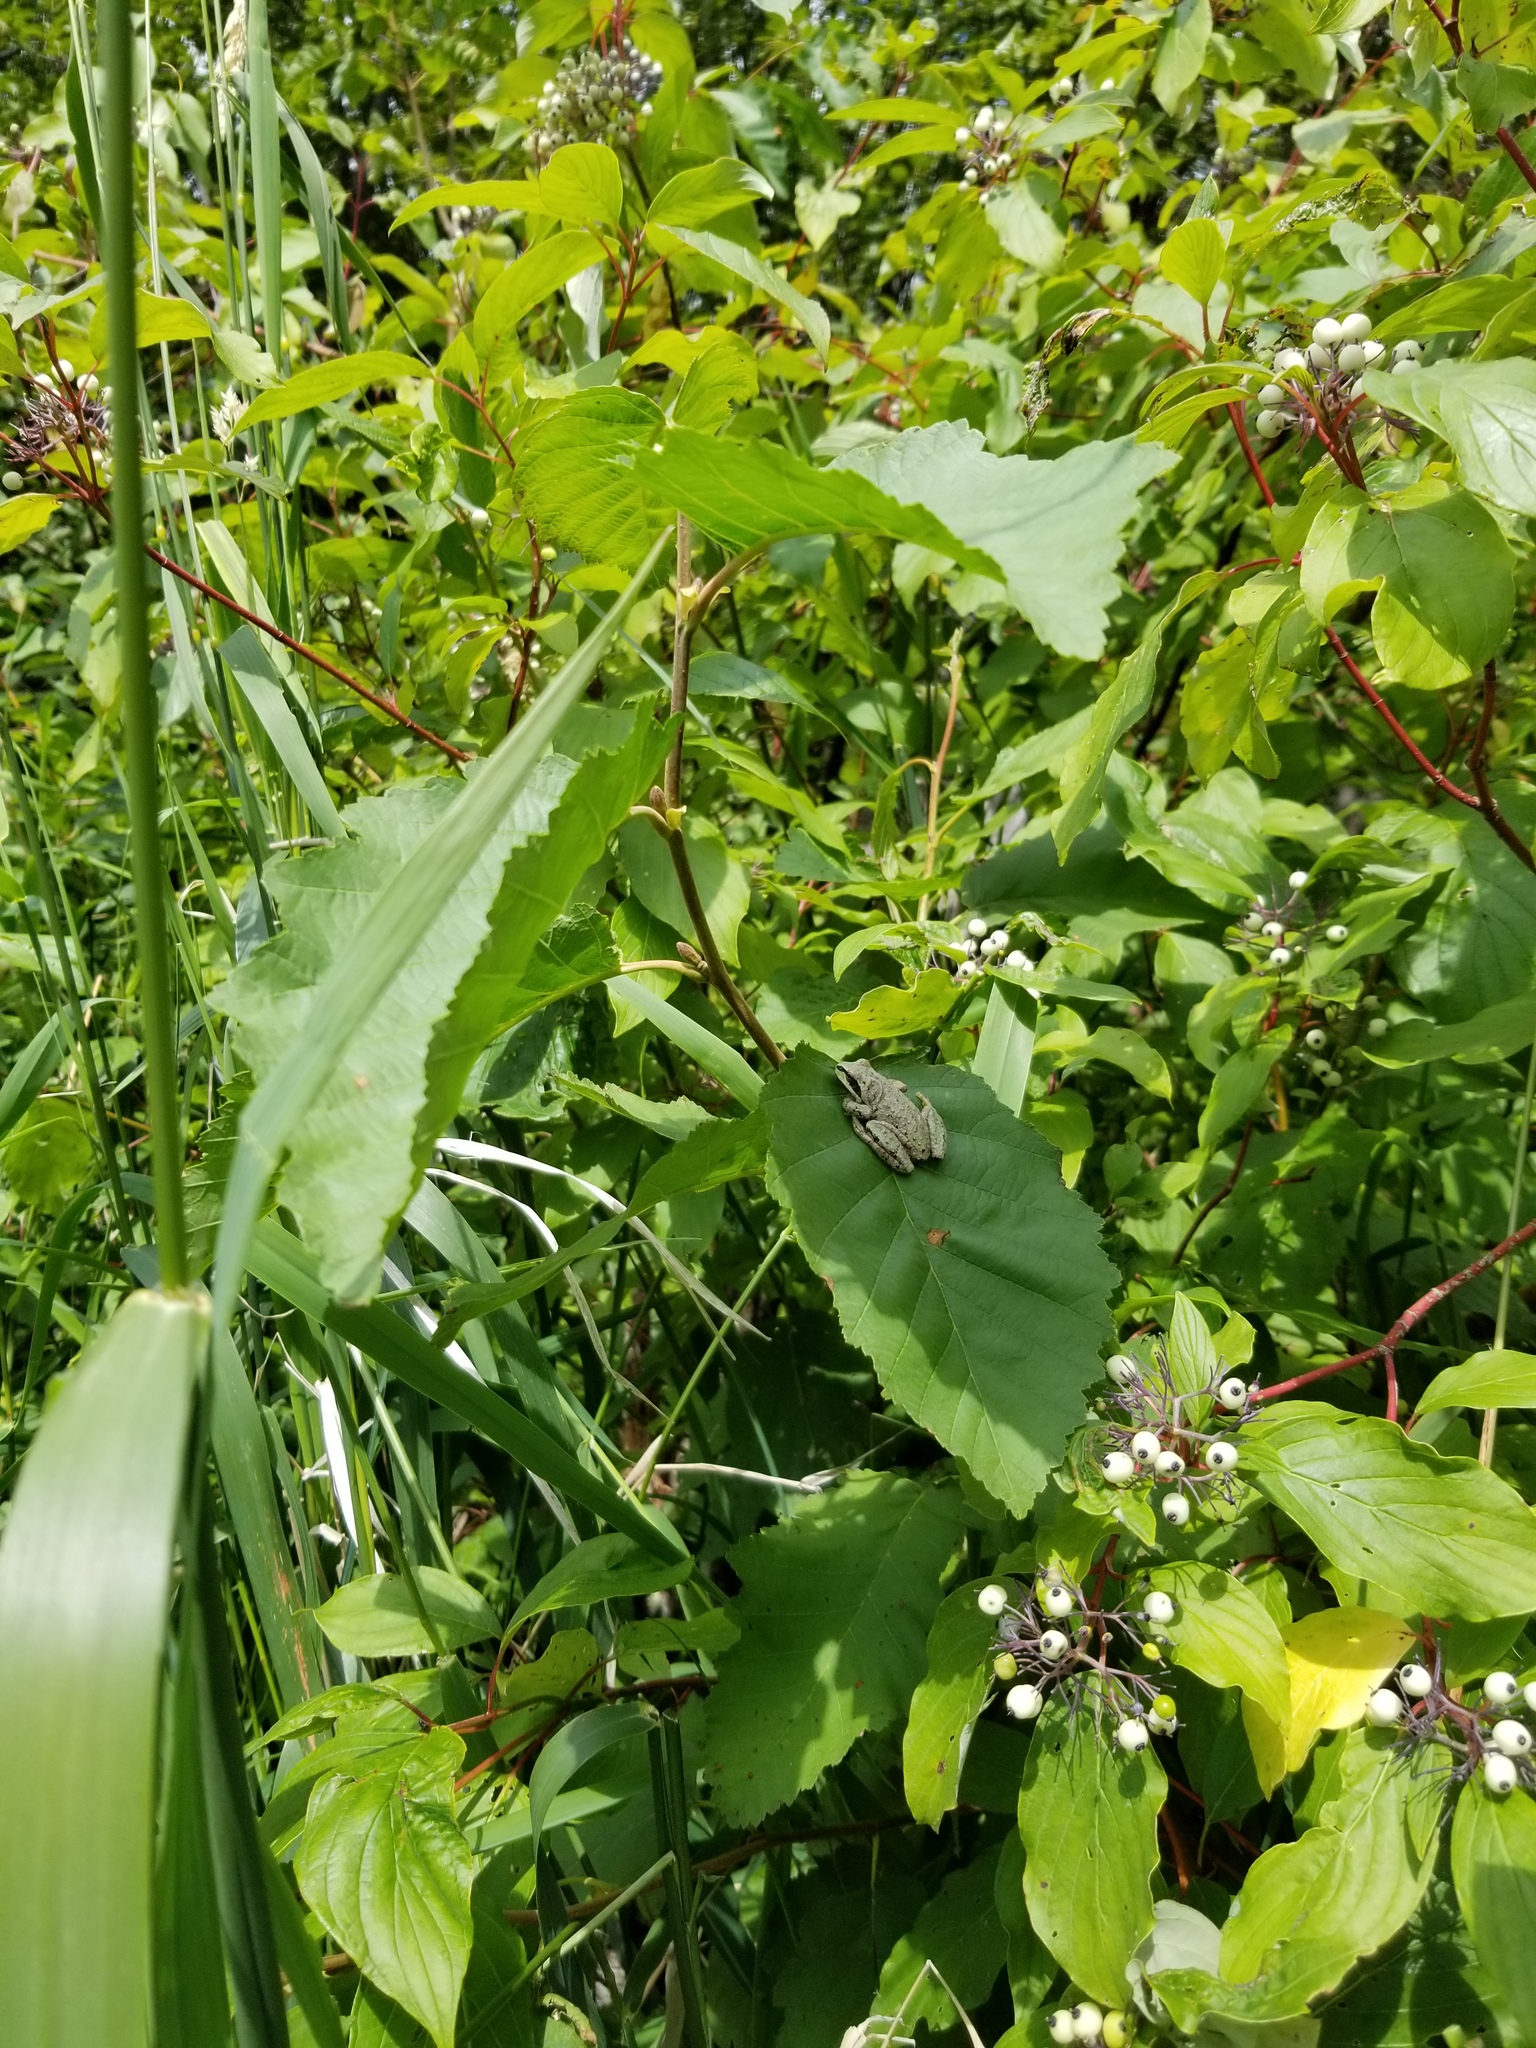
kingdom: Animalia
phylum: Chordata
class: Amphibia
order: Anura
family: Hylidae
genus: Pseudacris
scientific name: Pseudacris regilla
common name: Pacific chorus frog
